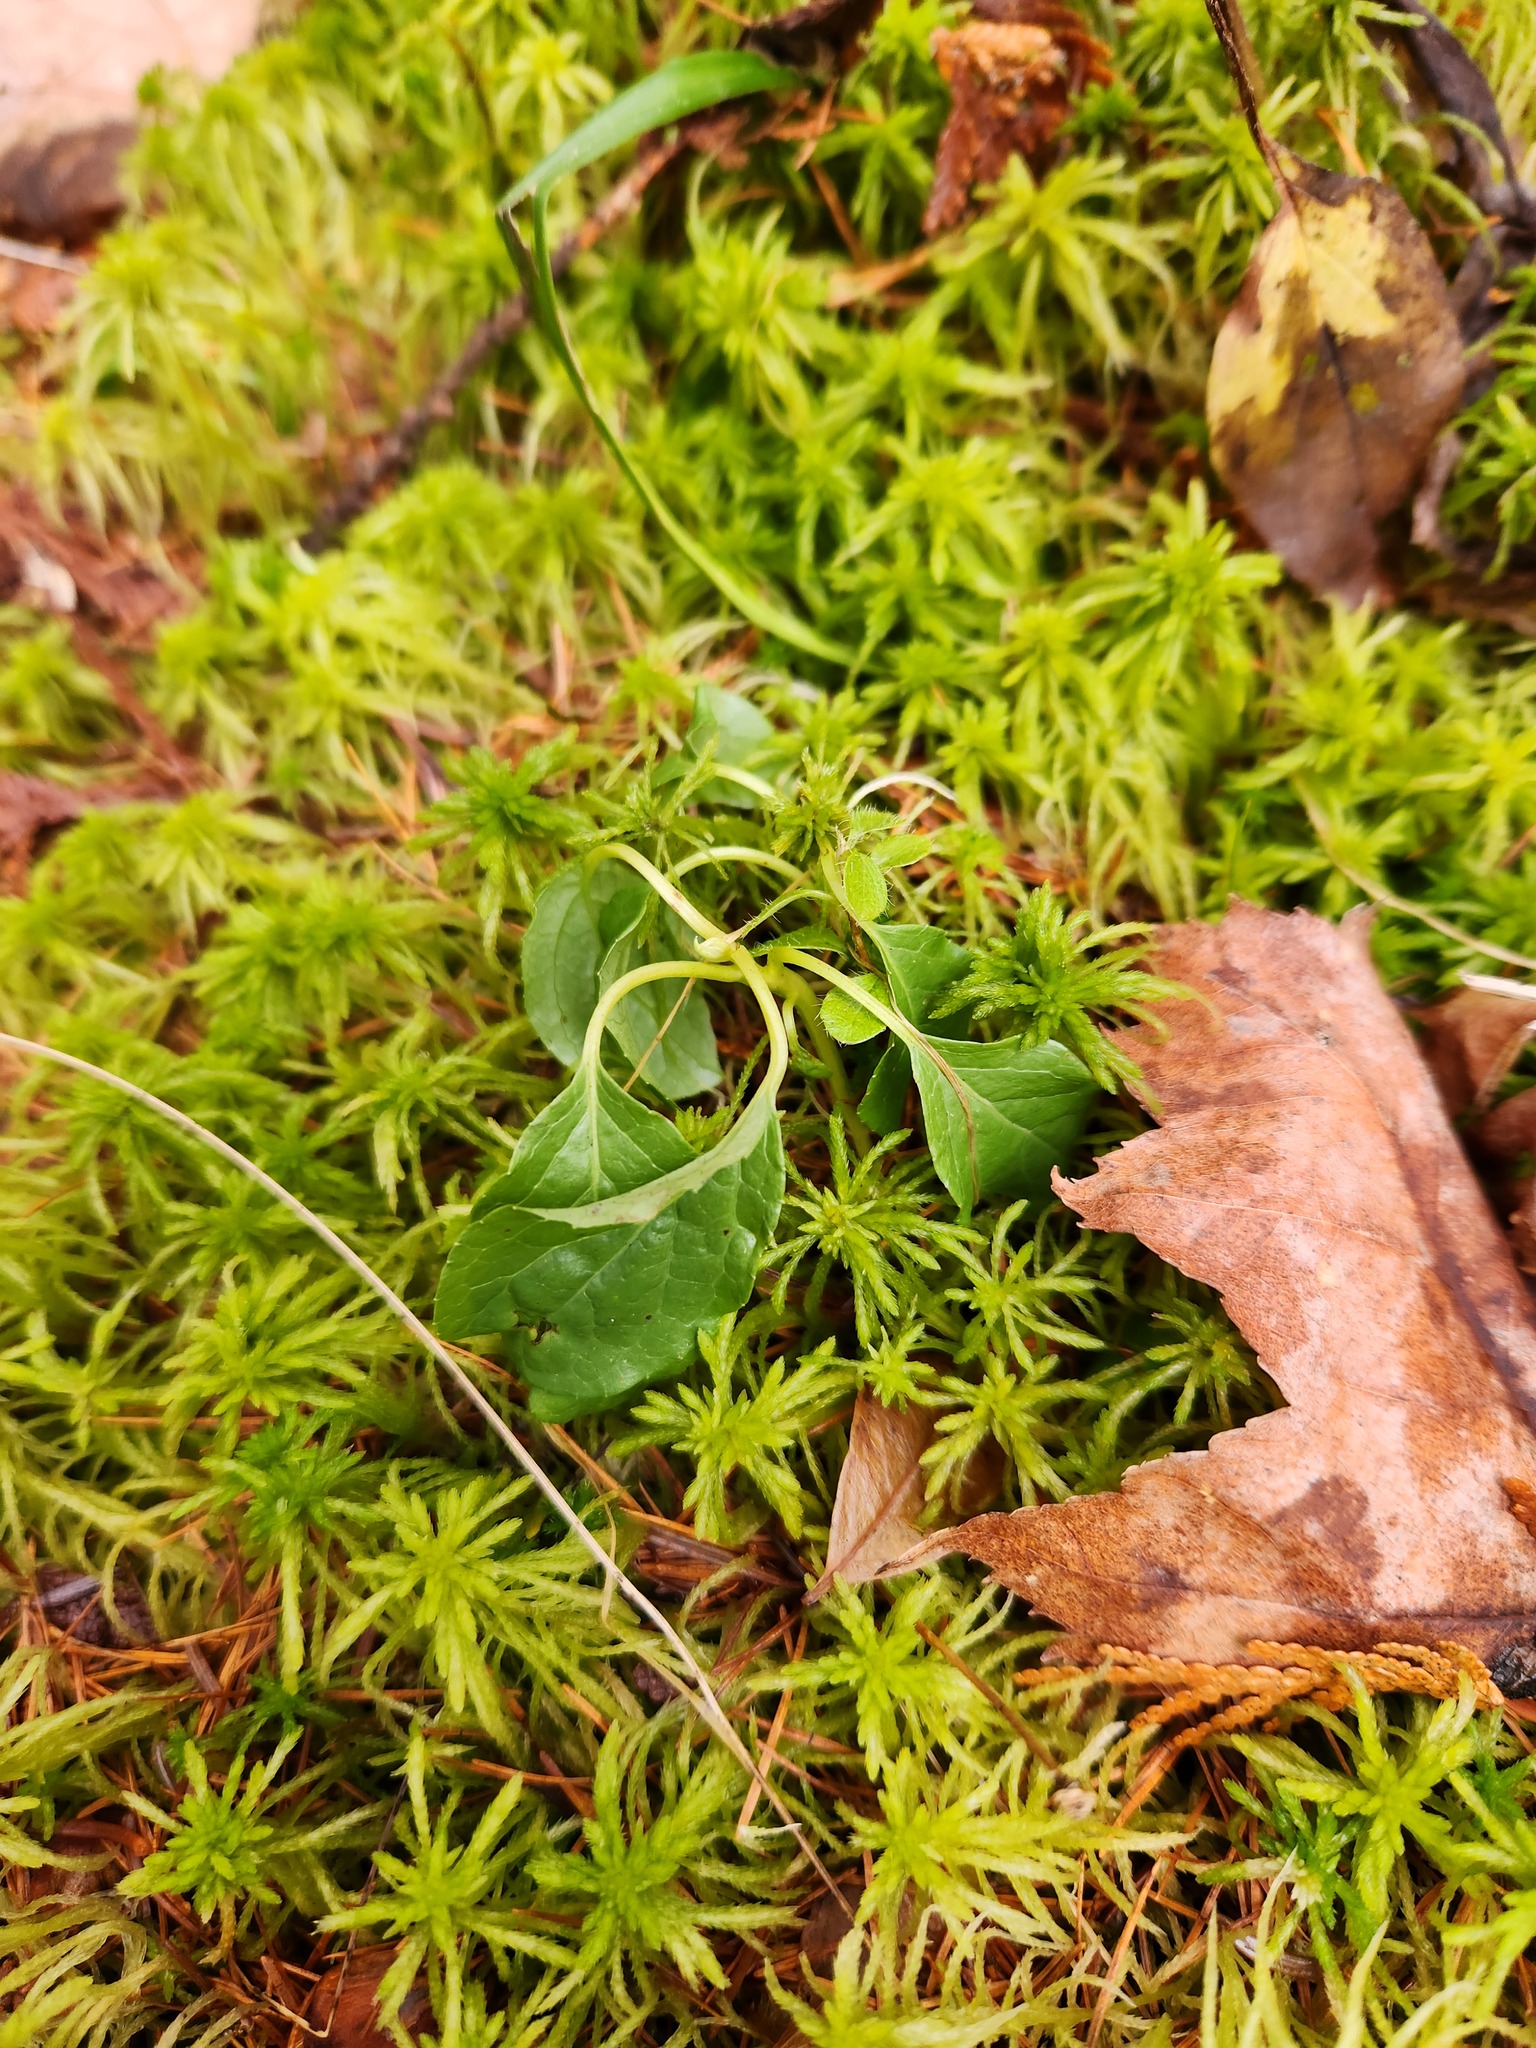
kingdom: Plantae
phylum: Tracheophyta
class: Magnoliopsida
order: Ericales
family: Ericaceae
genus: Orthilia
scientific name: Orthilia secunda
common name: One-sided orthilia
